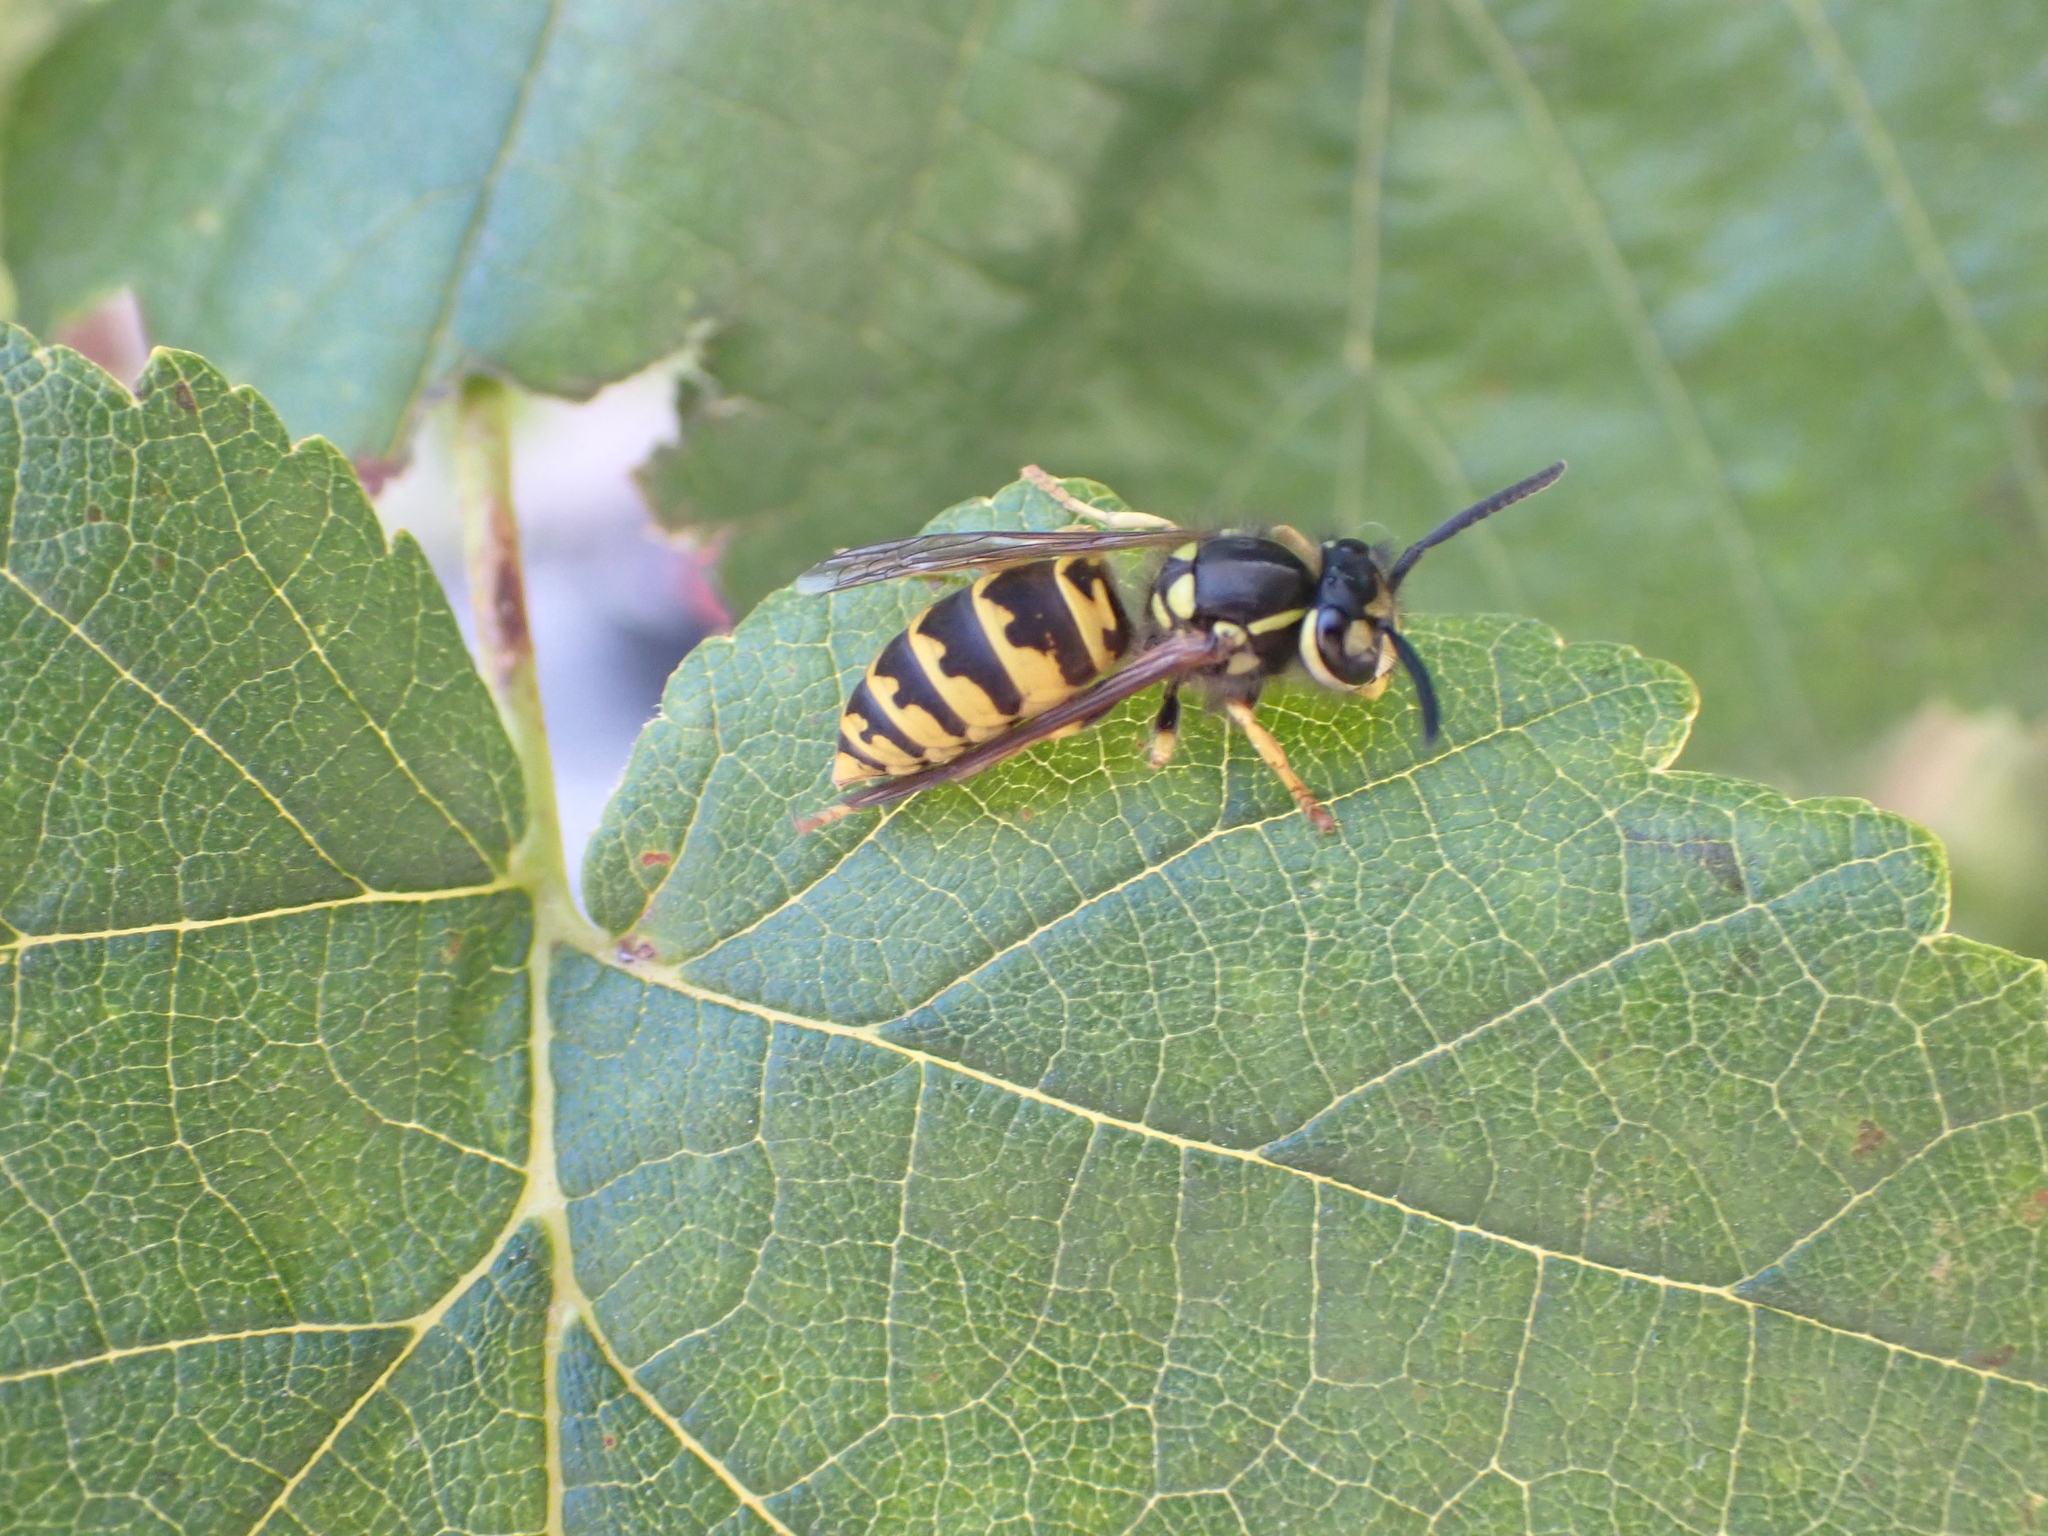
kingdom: Animalia
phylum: Arthropoda
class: Insecta
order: Hymenoptera
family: Vespidae
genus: Vespula
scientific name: Vespula germanica
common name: German wasp
